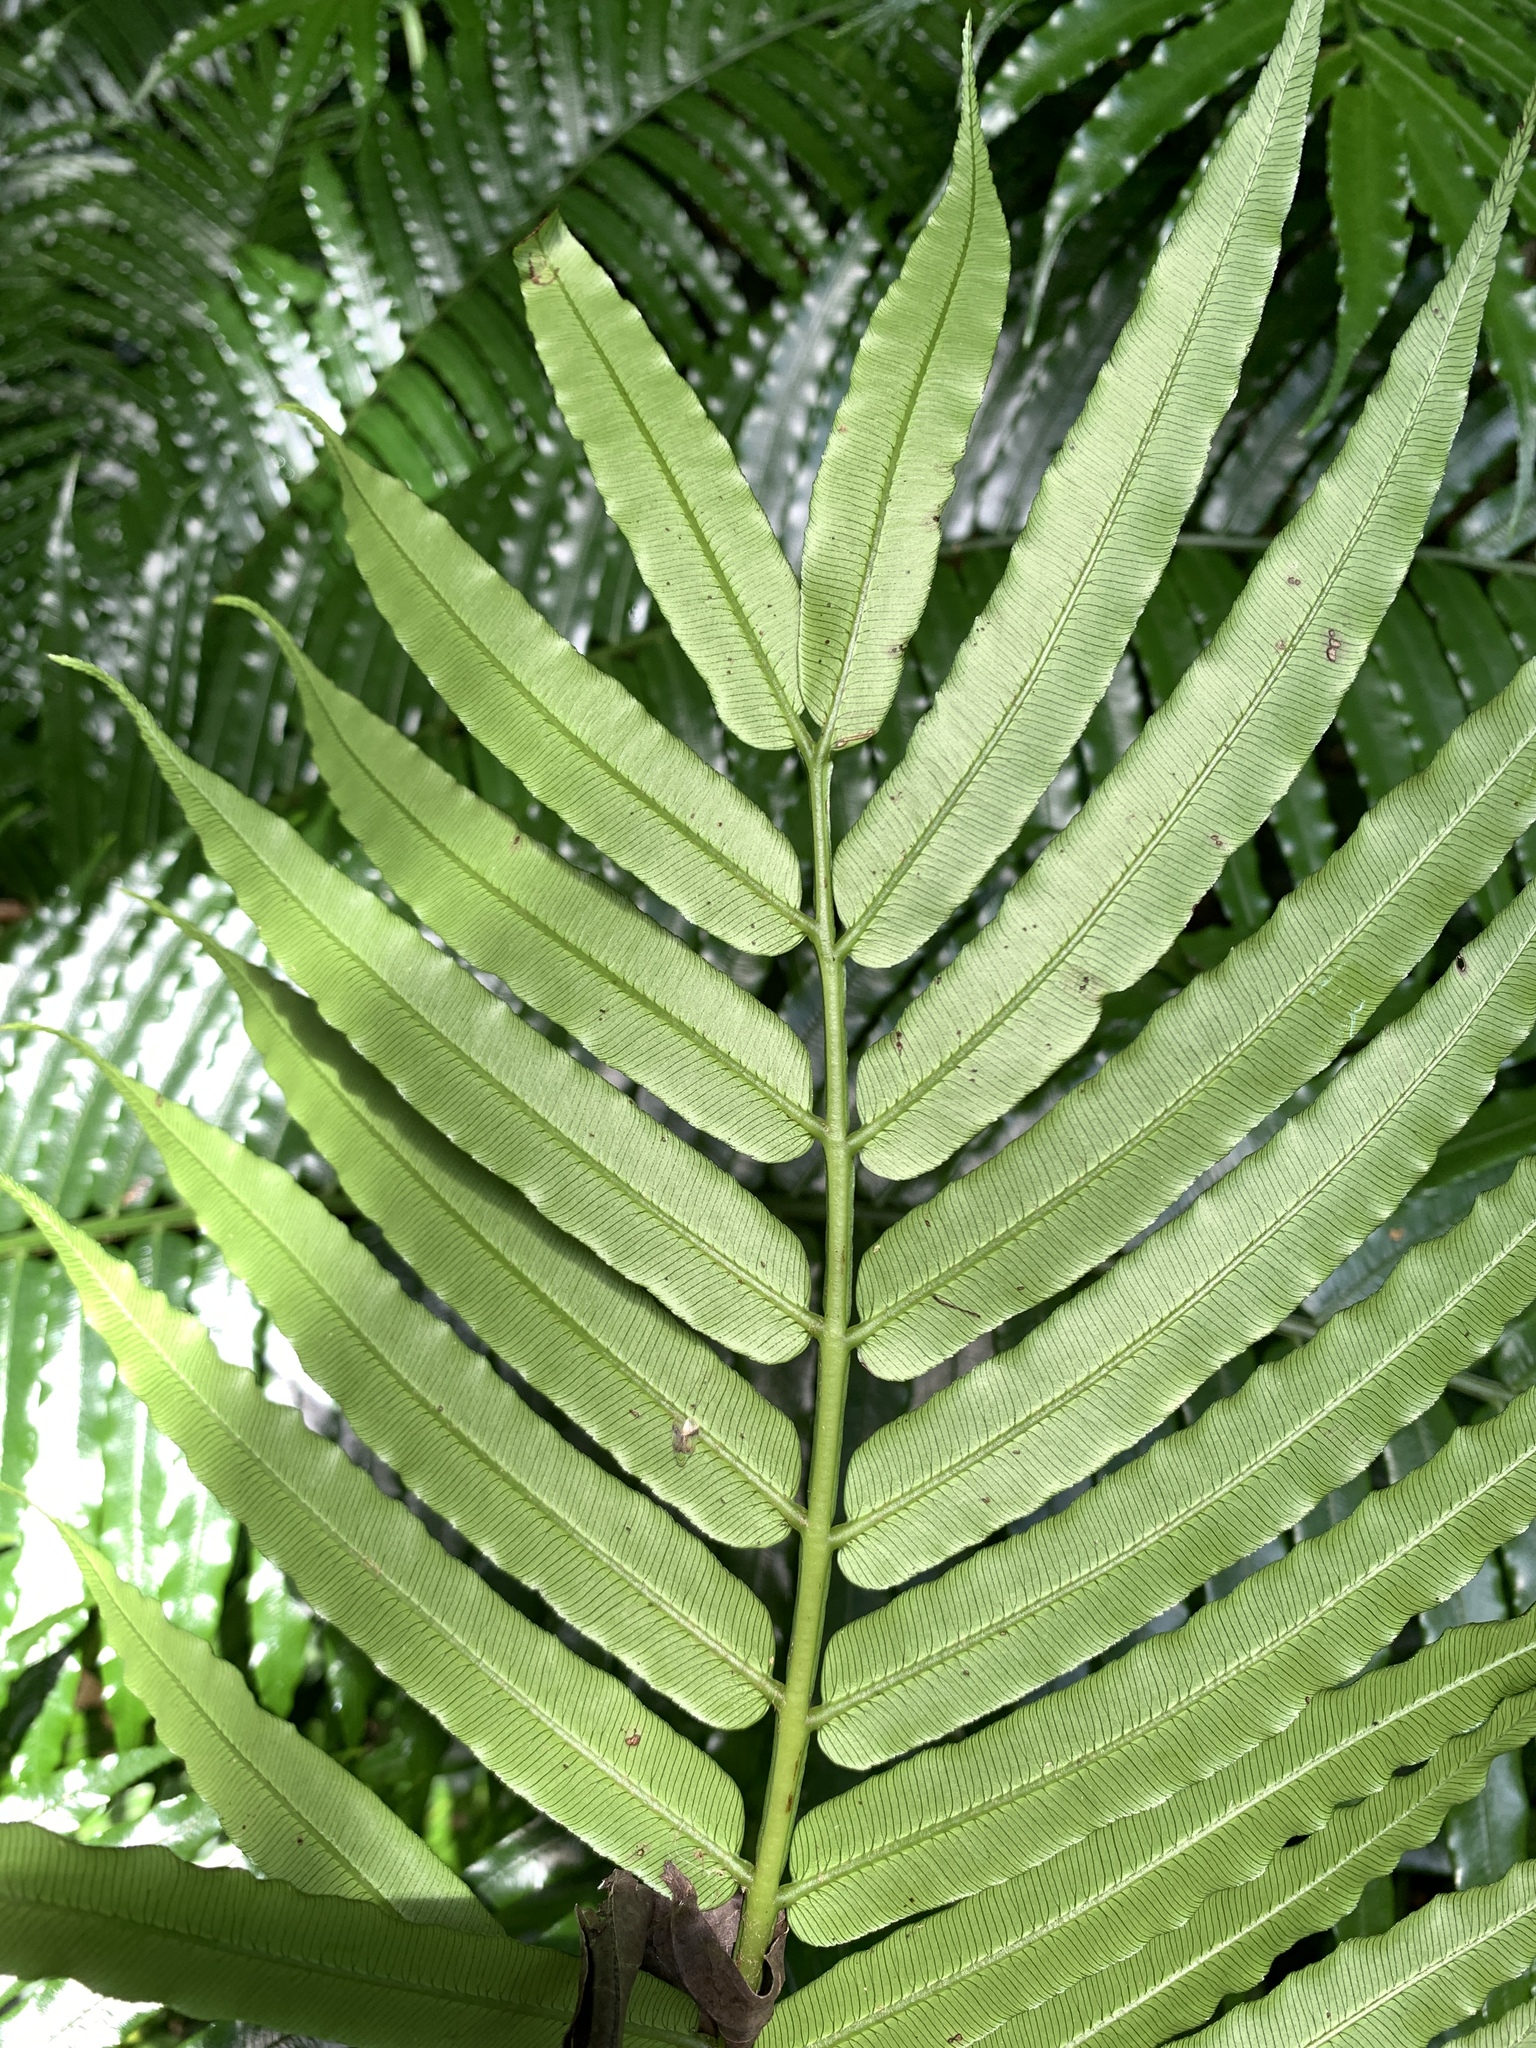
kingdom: Plantae
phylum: Tracheophyta
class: Polypodiopsida
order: Marattiales
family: Marattiaceae
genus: Angiopteris
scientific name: Angiopteris evecta
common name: Mule's-foot fern
